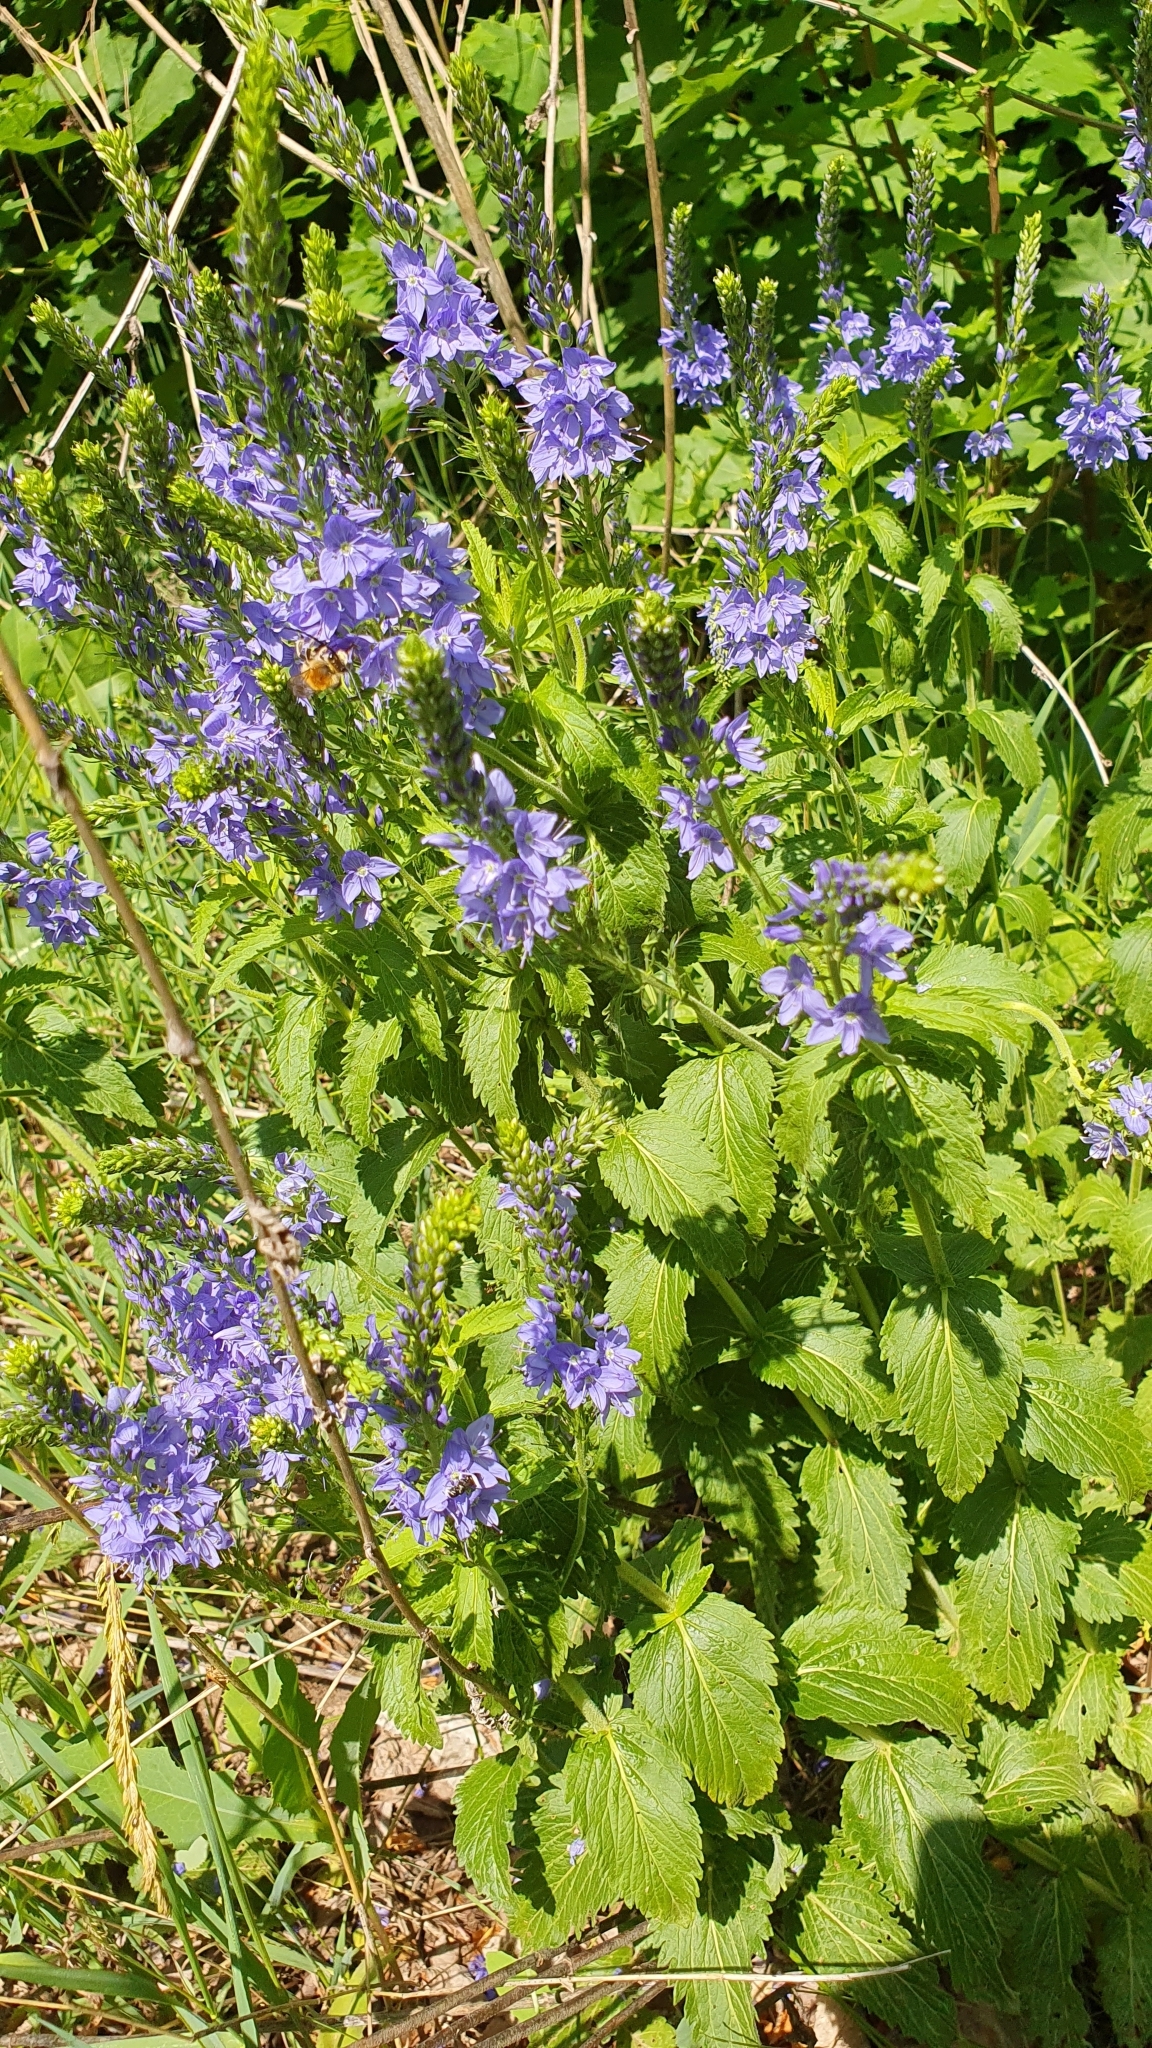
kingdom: Plantae
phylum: Tracheophyta
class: Magnoliopsida
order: Lamiales
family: Plantaginaceae
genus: Veronica
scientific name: Veronica teucrium
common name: Large speedwell
